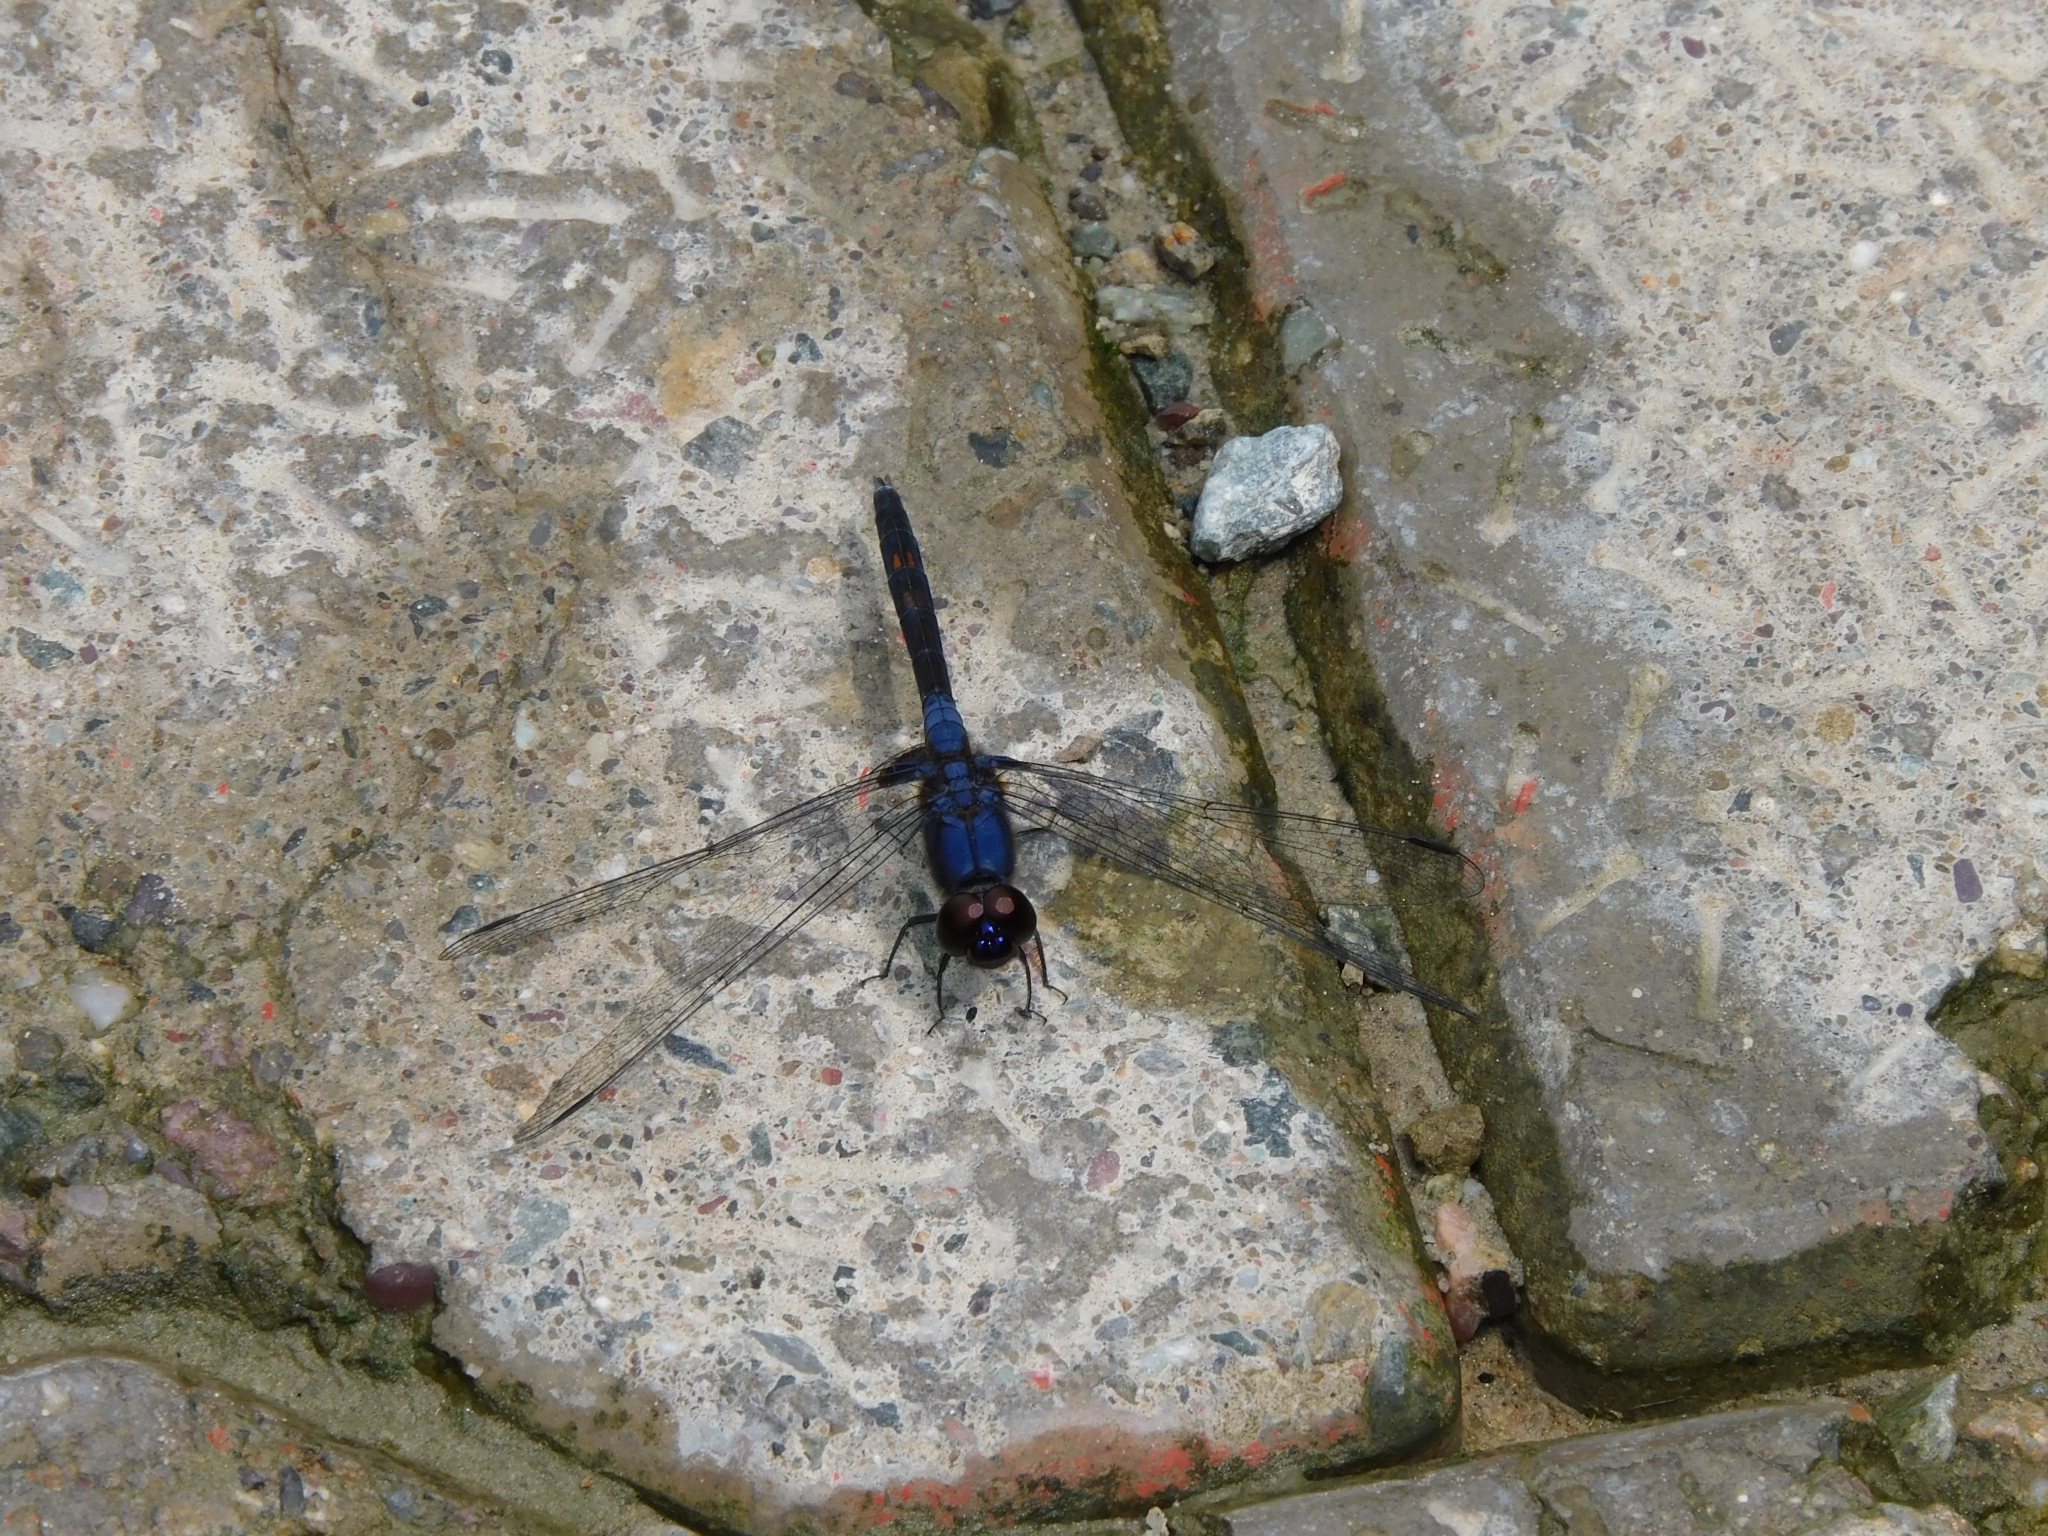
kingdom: Animalia
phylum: Arthropoda
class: Insecta
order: Odonata
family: Libellulidae
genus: Trithemis
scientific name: Trithemis festiva
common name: Indigo dropwing
